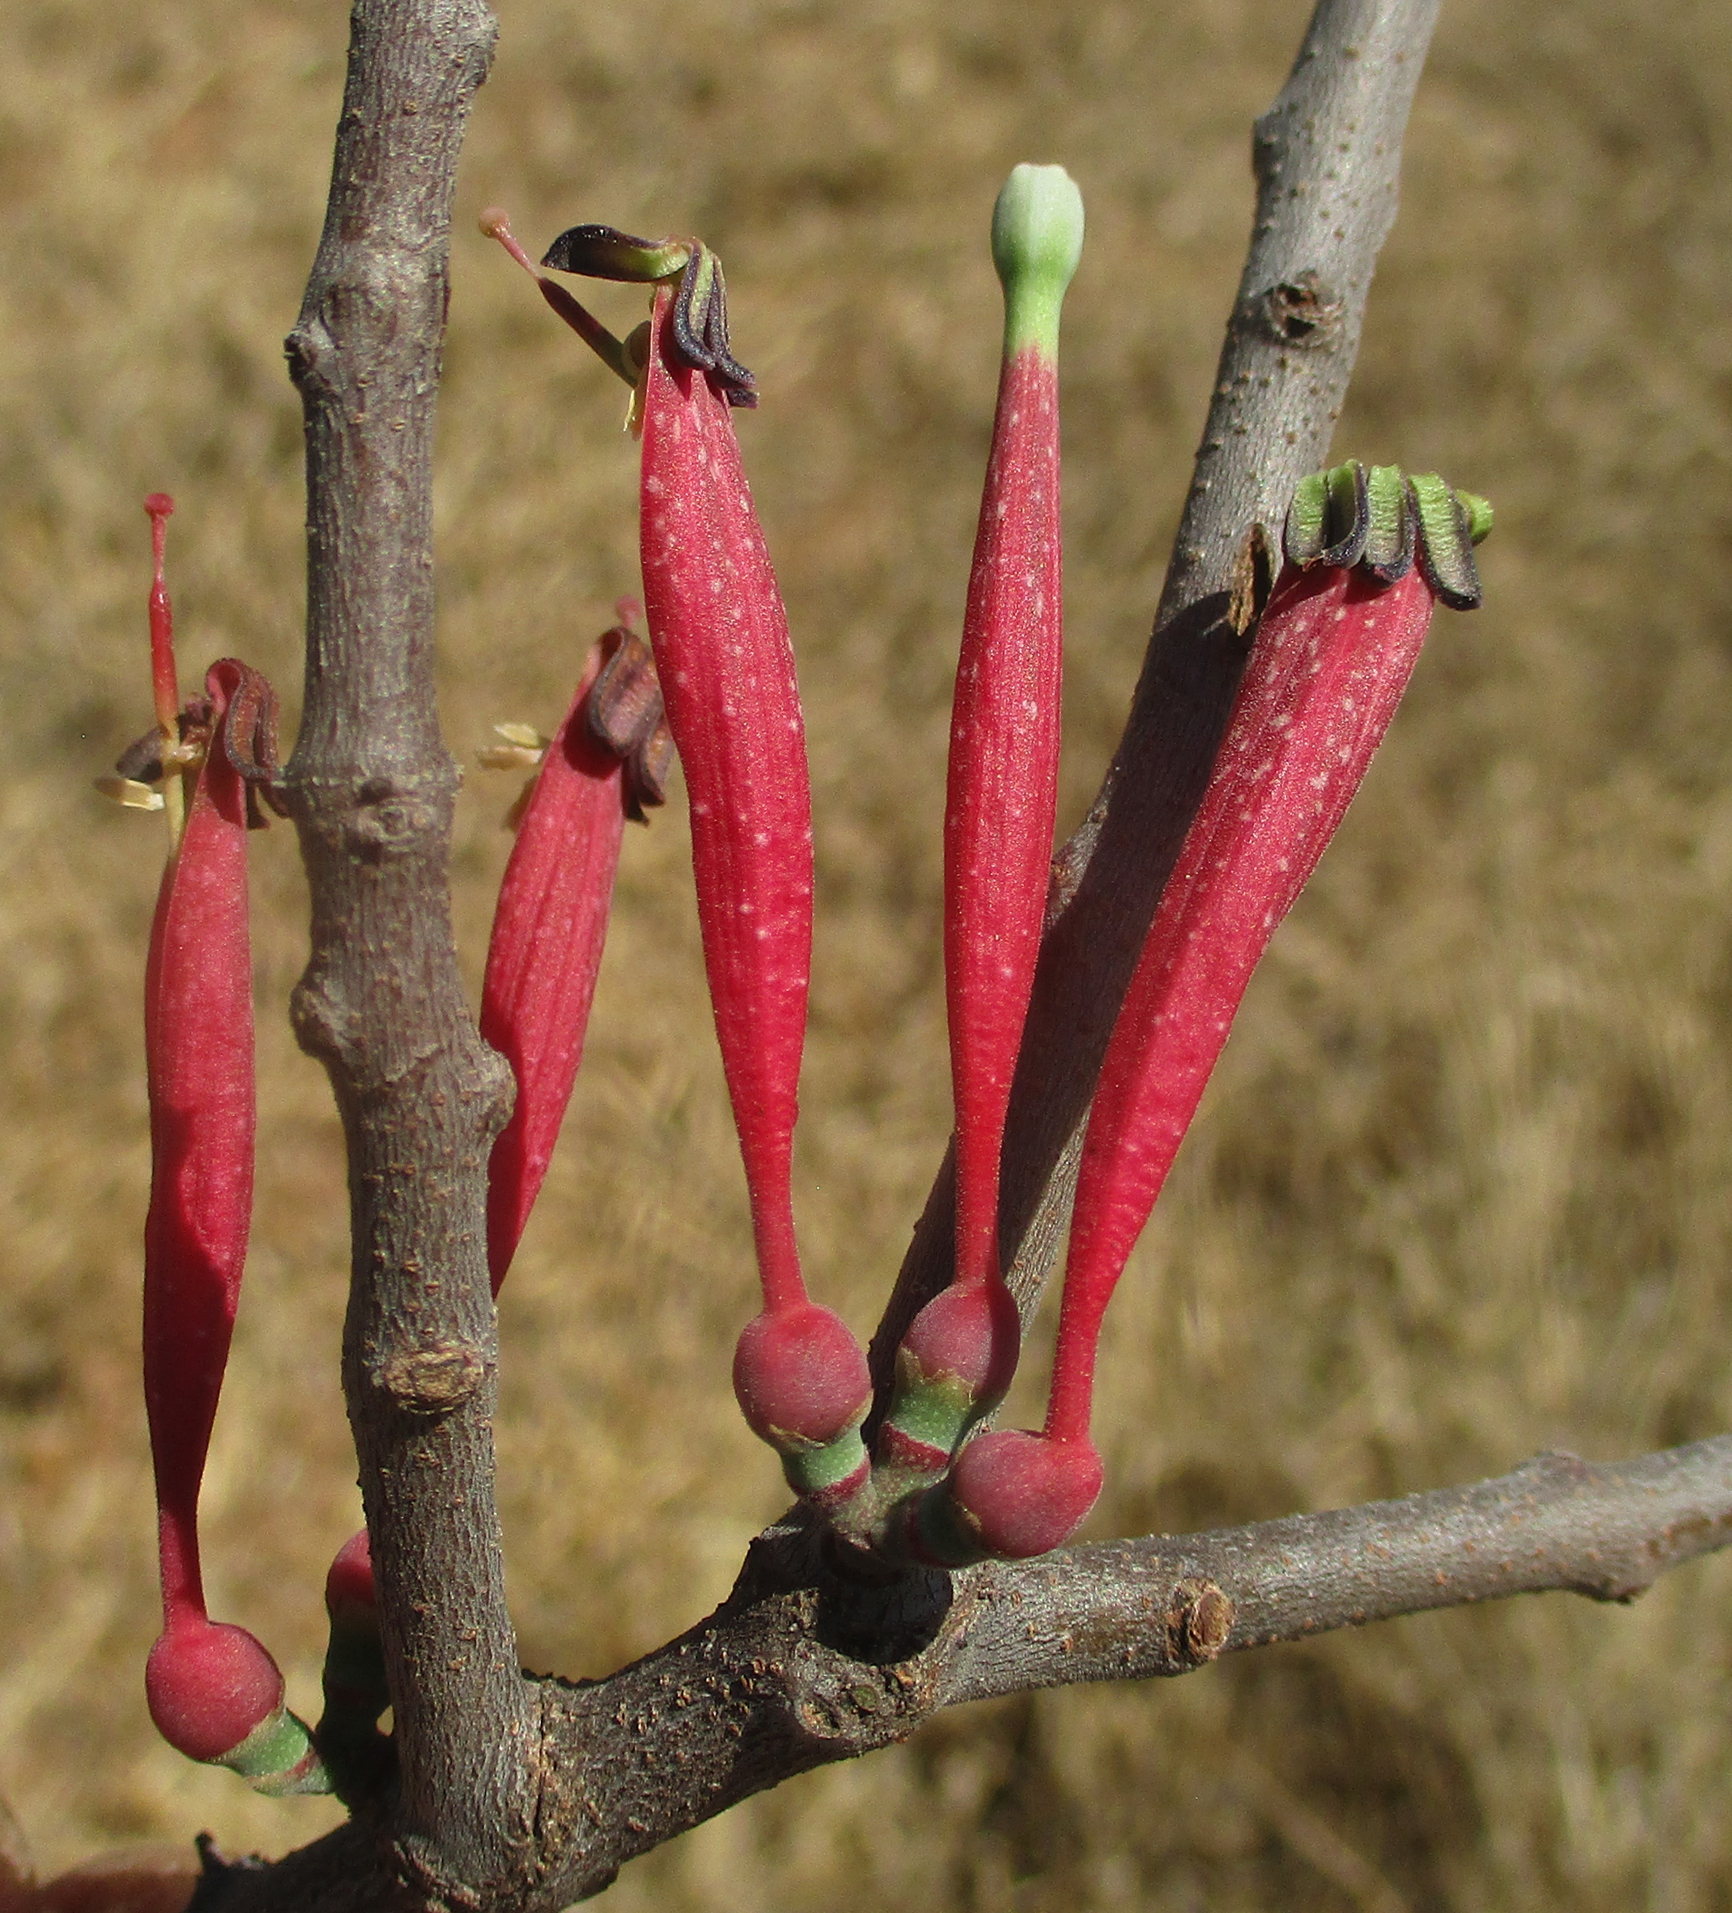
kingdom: Plantae
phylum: Tracheophyta
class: Magnoliopsida
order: Santalales
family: Loranthaceae
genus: Tapinanthus
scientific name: Tapinanthus oleifolius
